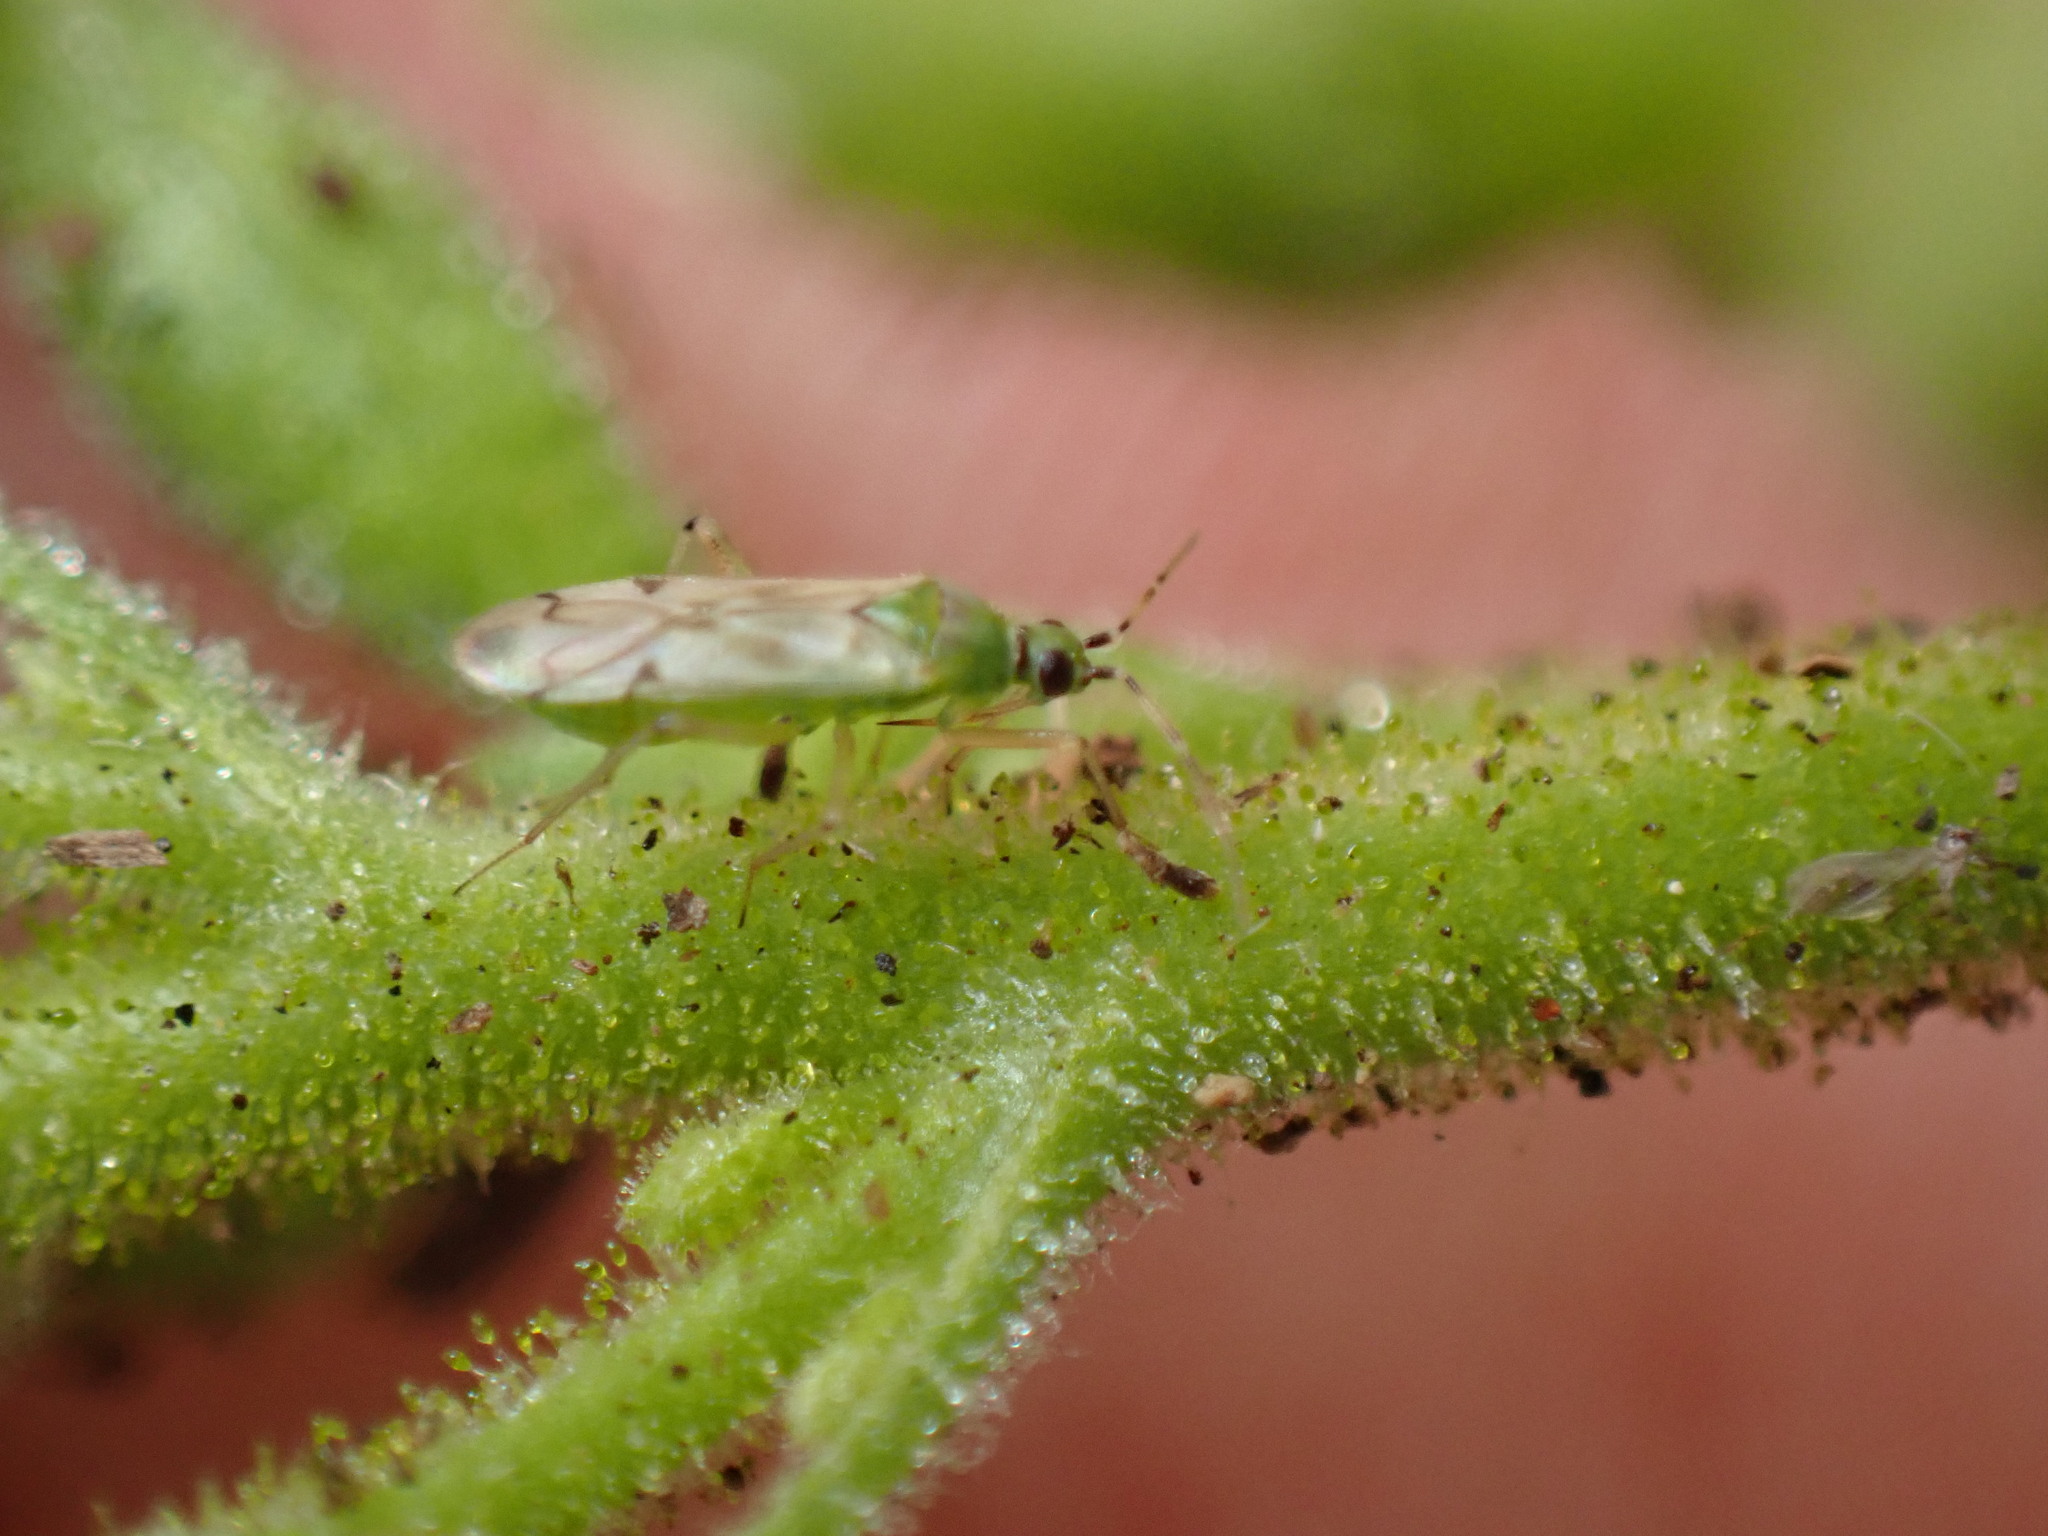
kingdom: Animalia
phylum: Arthropoda
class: Insecta
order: Hemiptera
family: Miridae
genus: Nesidiocoris
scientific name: Nesidiocoris tenuis
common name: Plant bug
